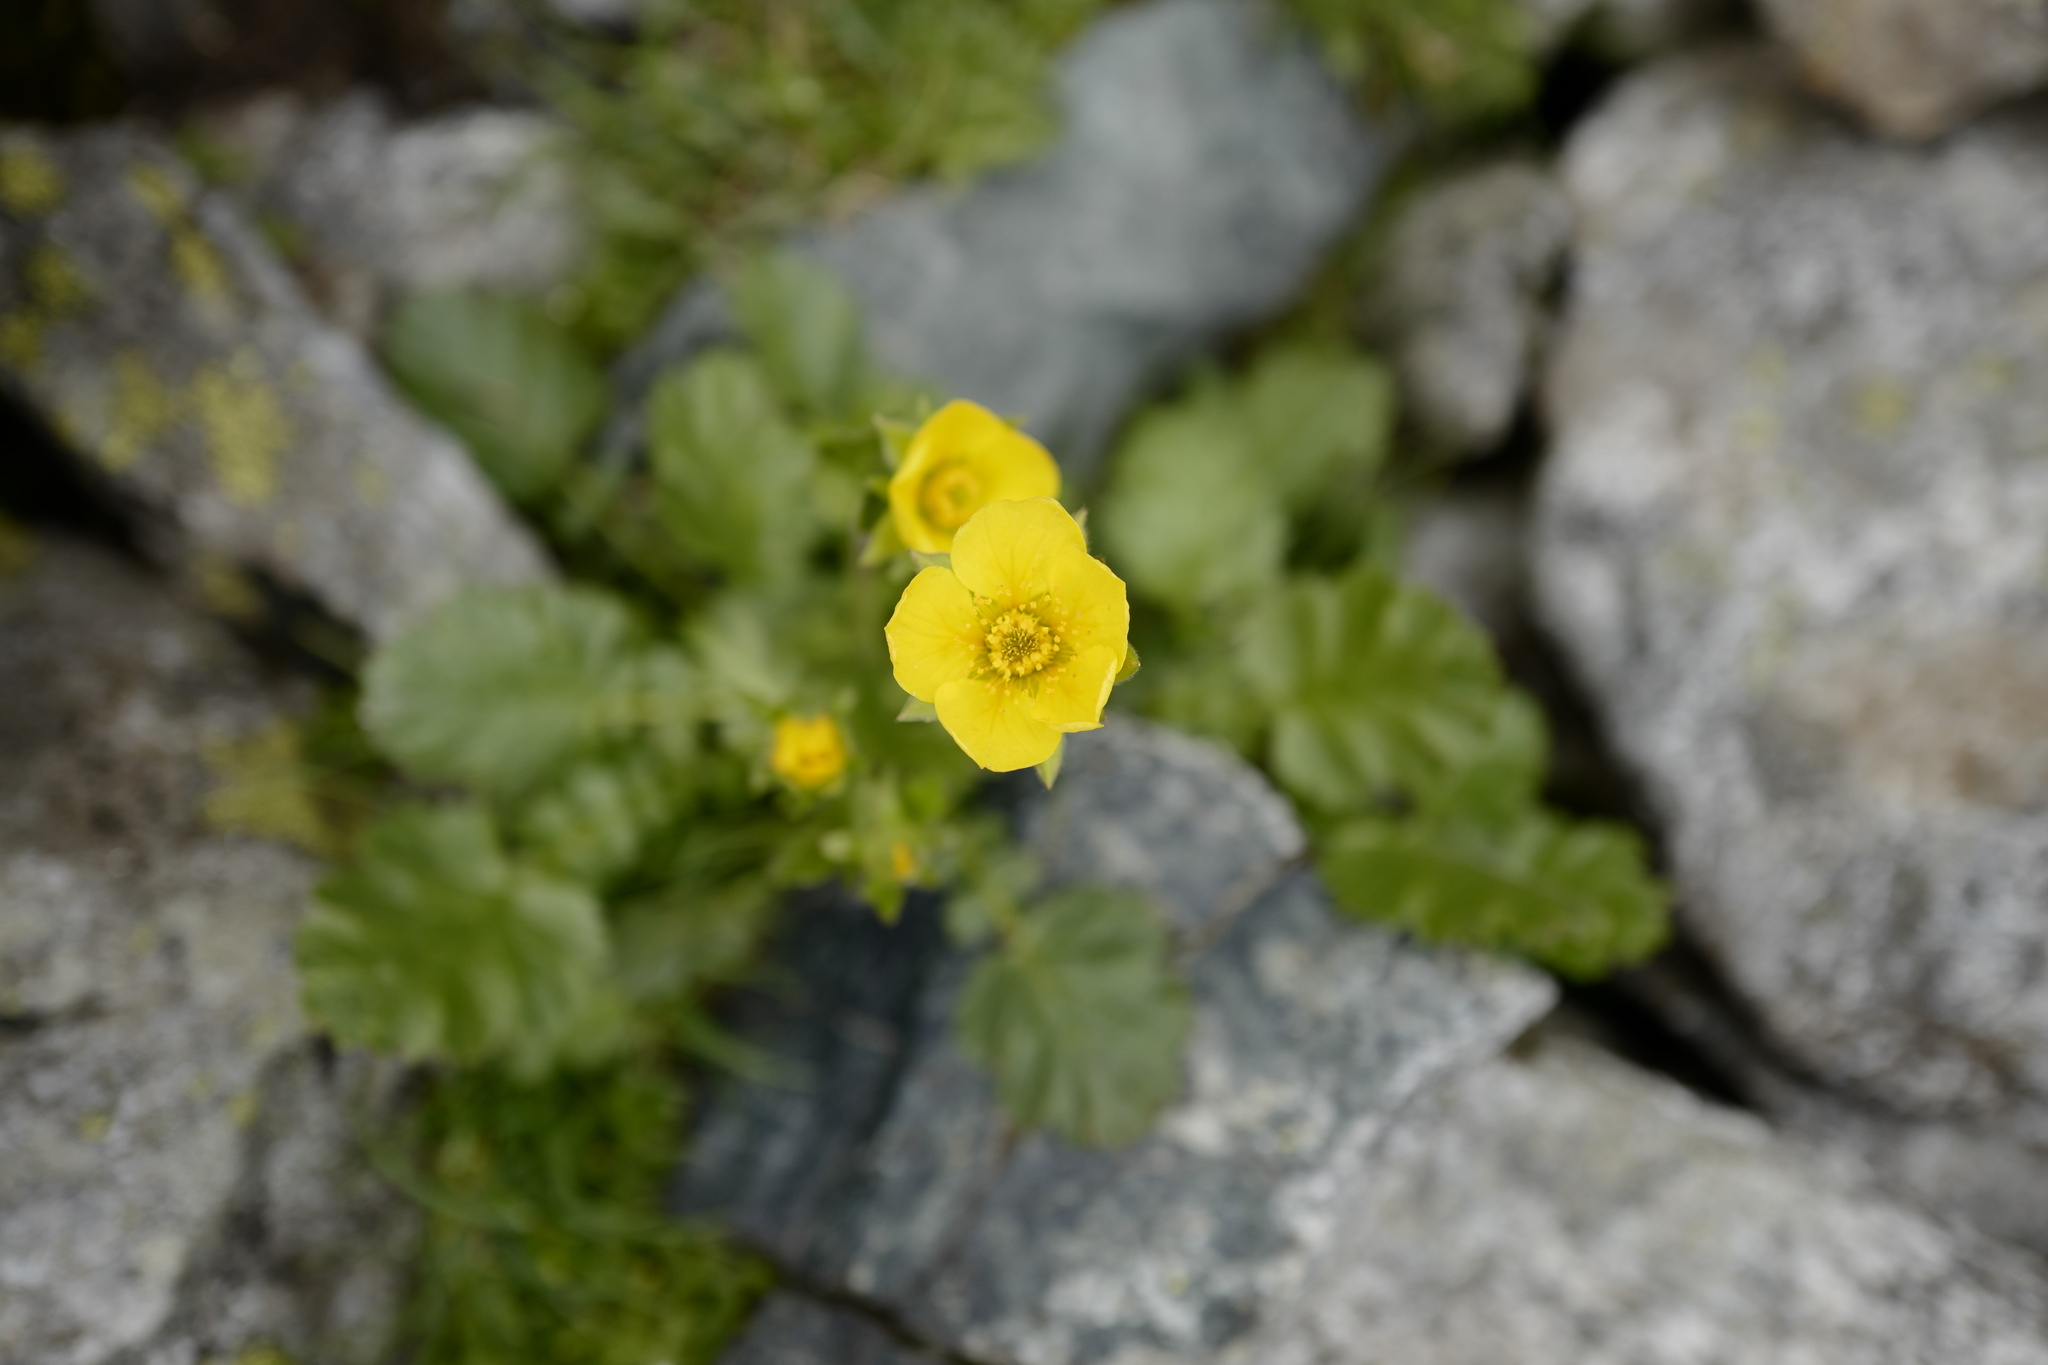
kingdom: Plantae
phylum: Tracheophyta
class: Magnoliopsida
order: Rosales
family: Rosaceae
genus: Geum
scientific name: Geum montanum
